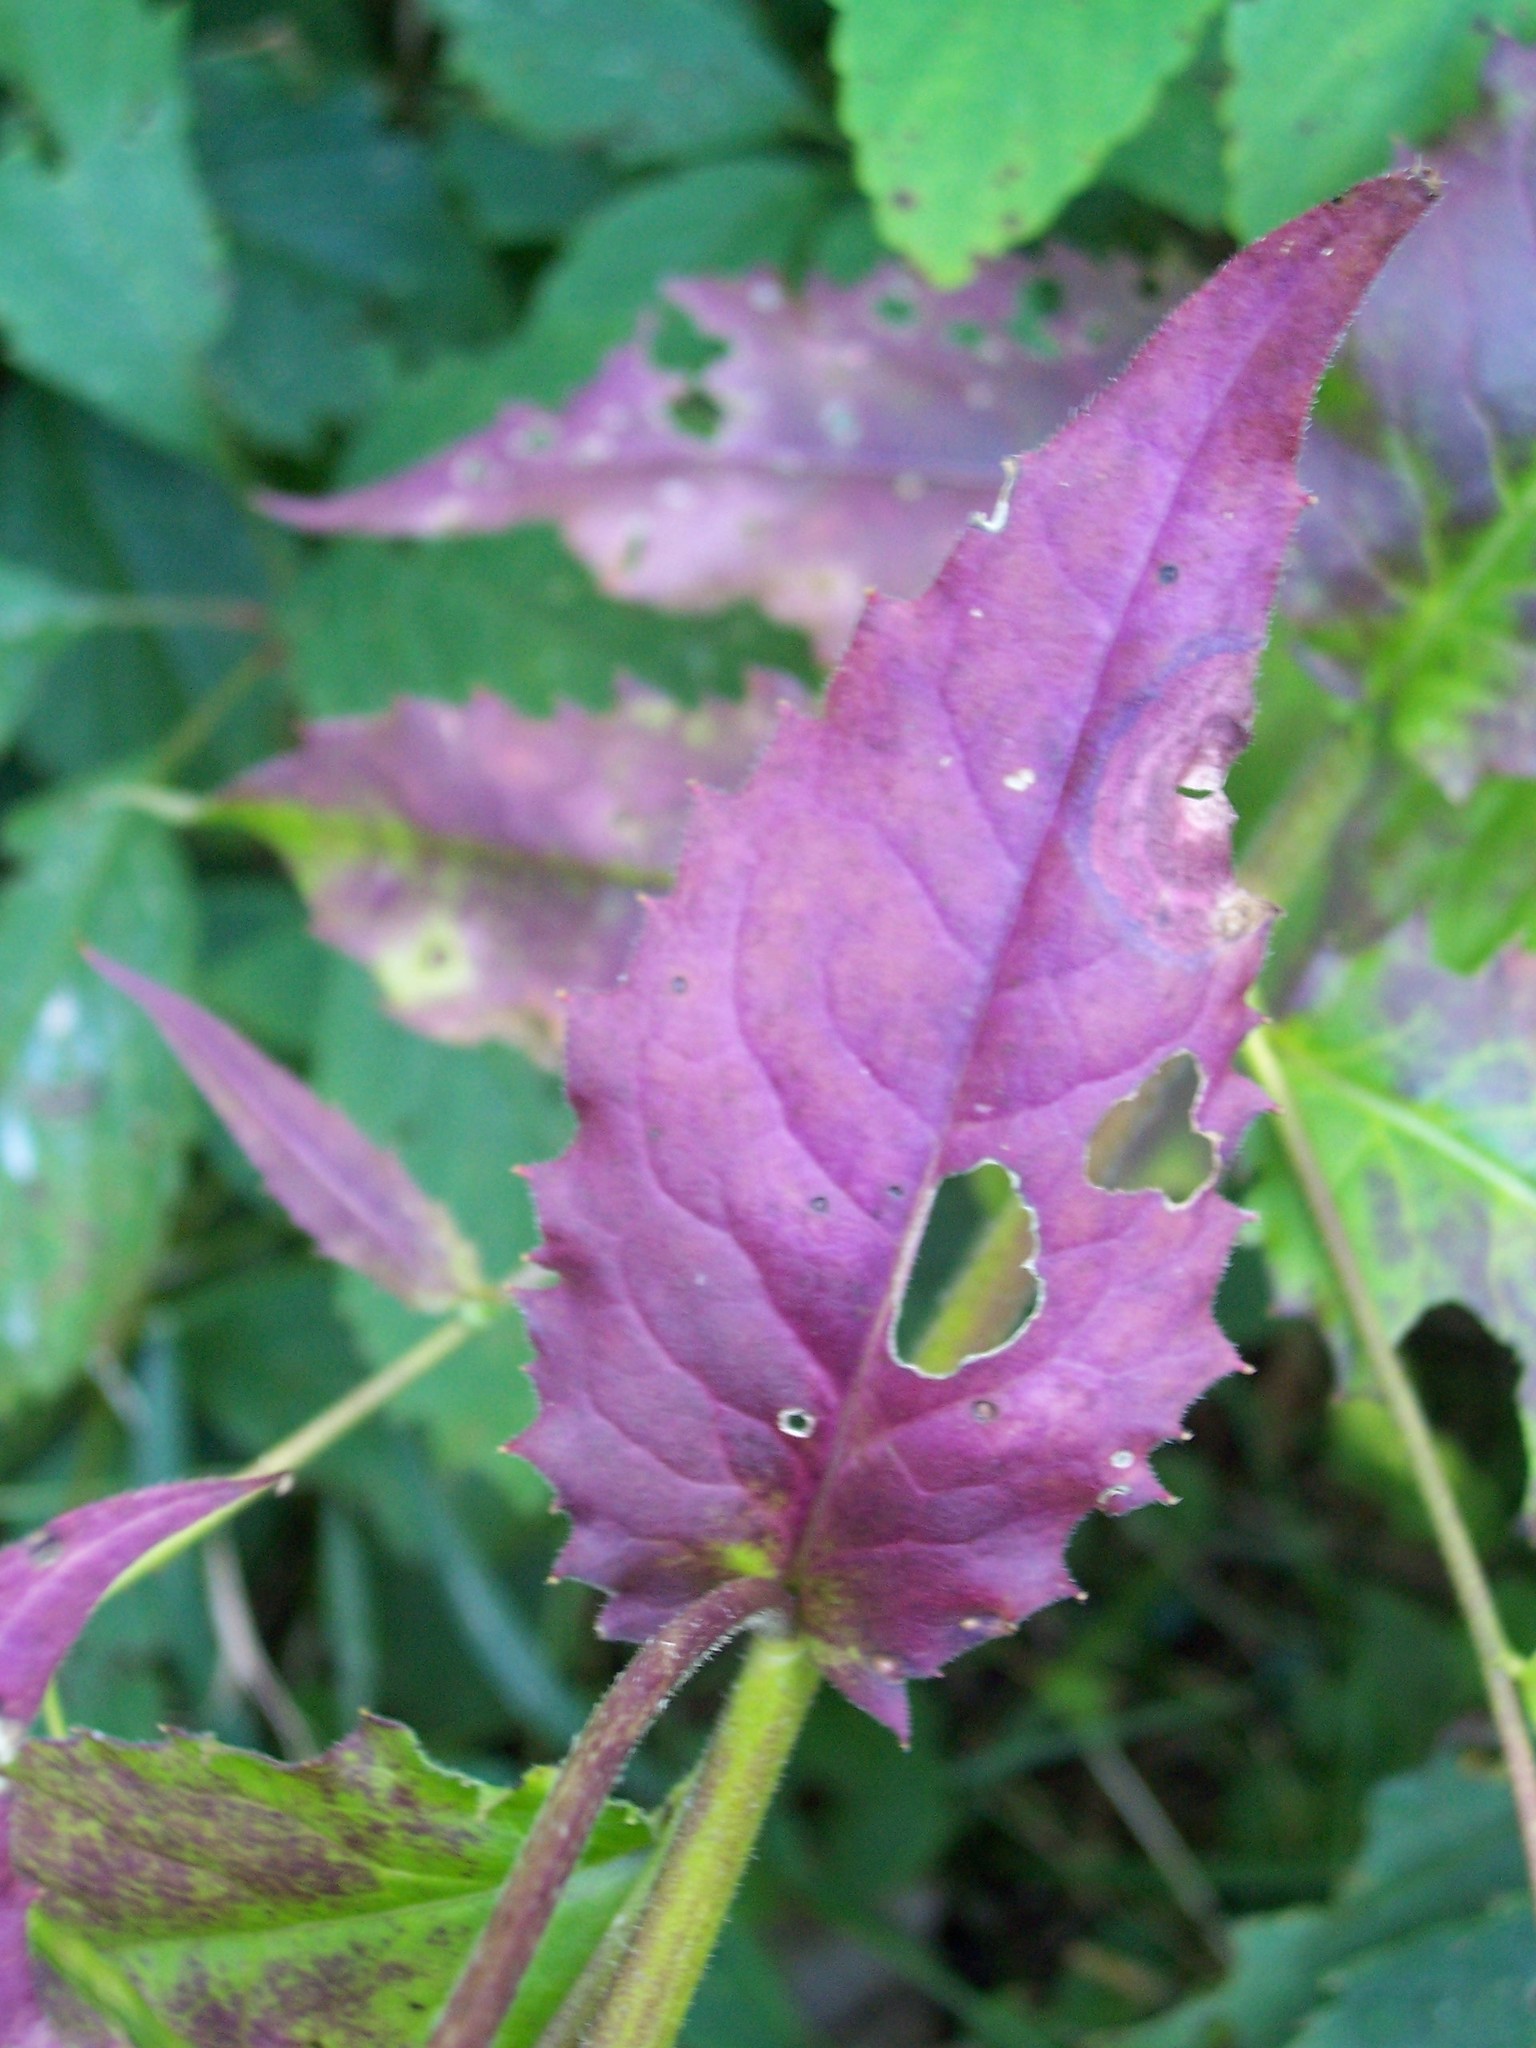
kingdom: Plantae
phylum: Tracheophyta
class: Magnoliopsida
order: Brassicales
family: Brassicaceae
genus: Hesperis
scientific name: Hesperis matronalis
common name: Dame's-violet
